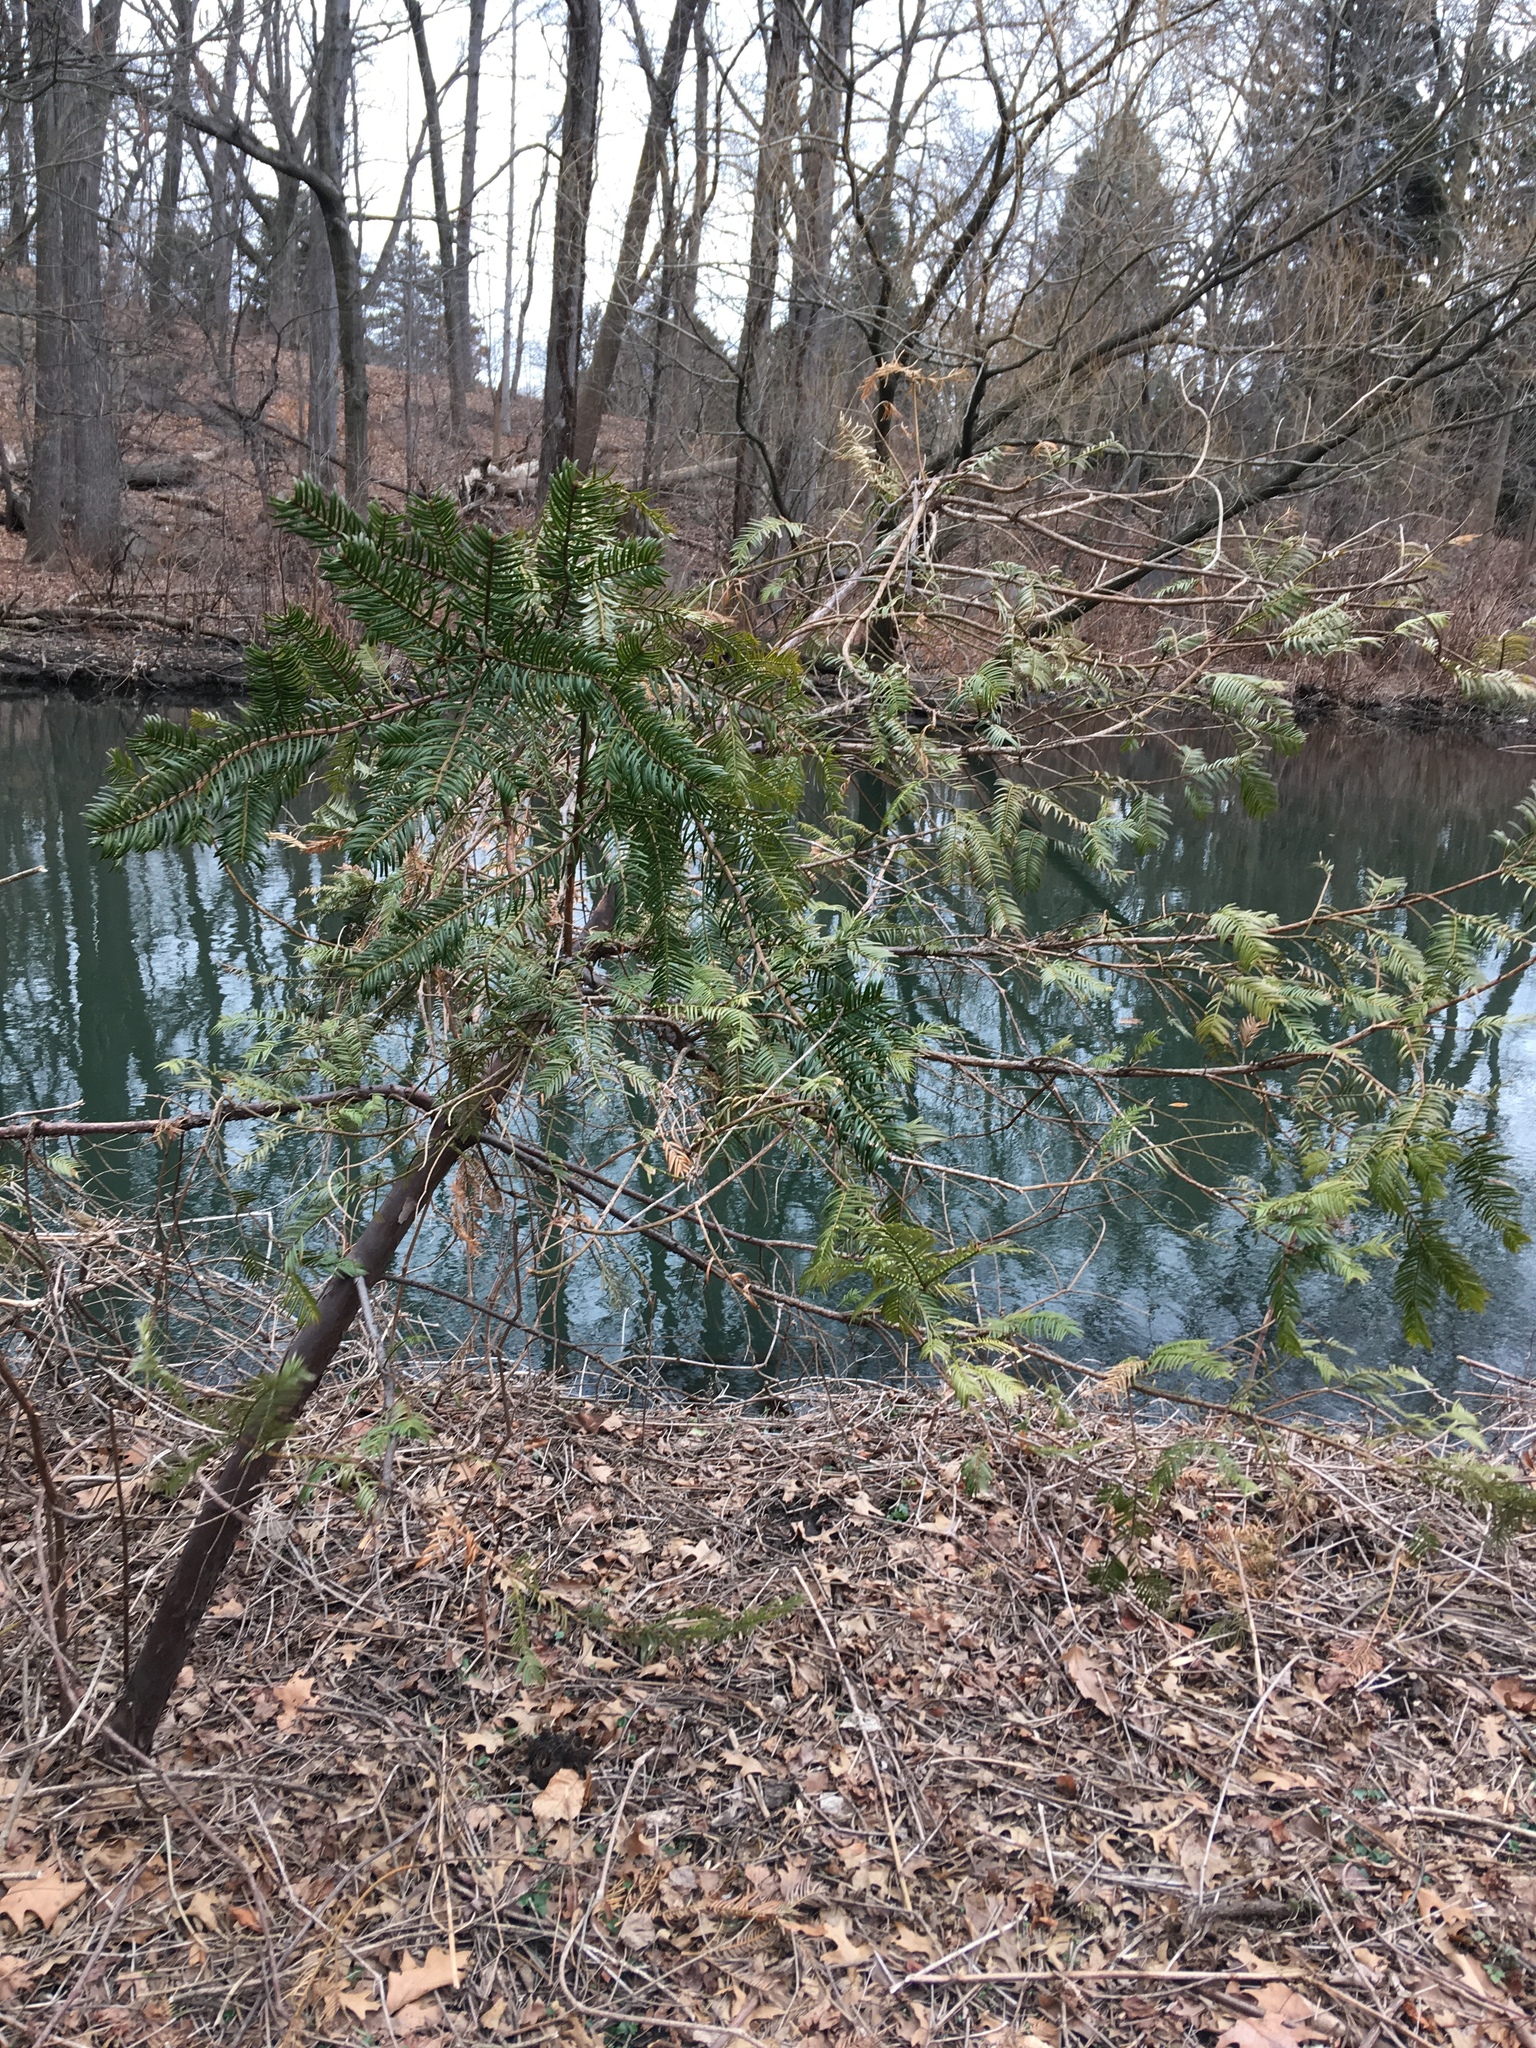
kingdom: Plantae
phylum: Tracheophyta
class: Pinopsida
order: Pinales
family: Cephalotaxaceae
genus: Cephalotaxus
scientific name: Cephalotaxus harringtonia
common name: Japanese plum-yew
